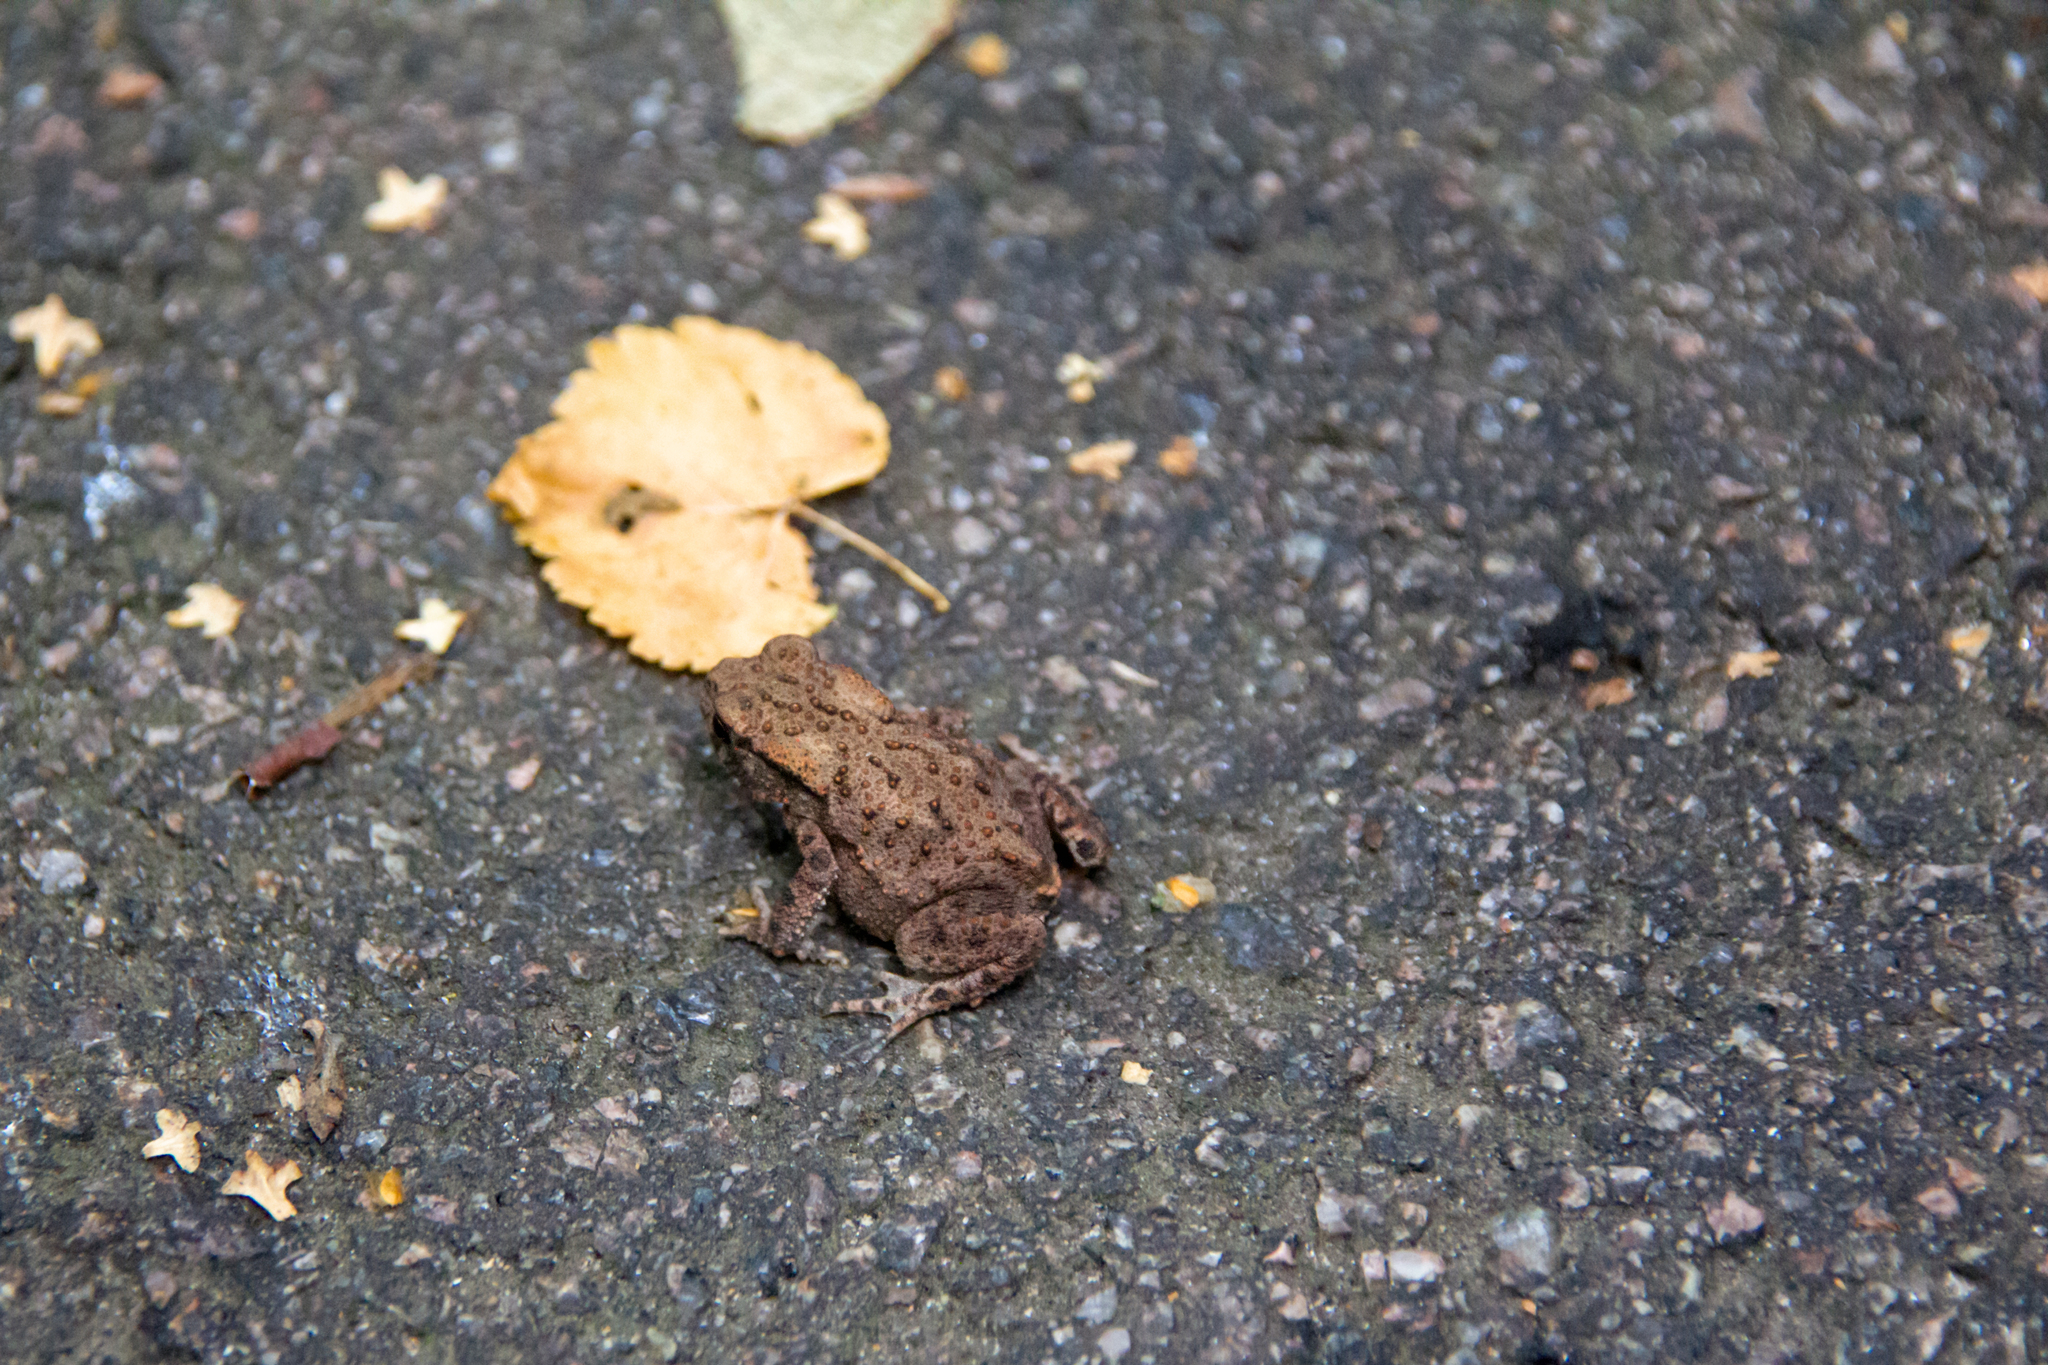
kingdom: Animalia
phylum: Chordata
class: Amphibia
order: Anura
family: Bufonidae
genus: Bufo
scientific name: Bufo bufo
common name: Common toad
